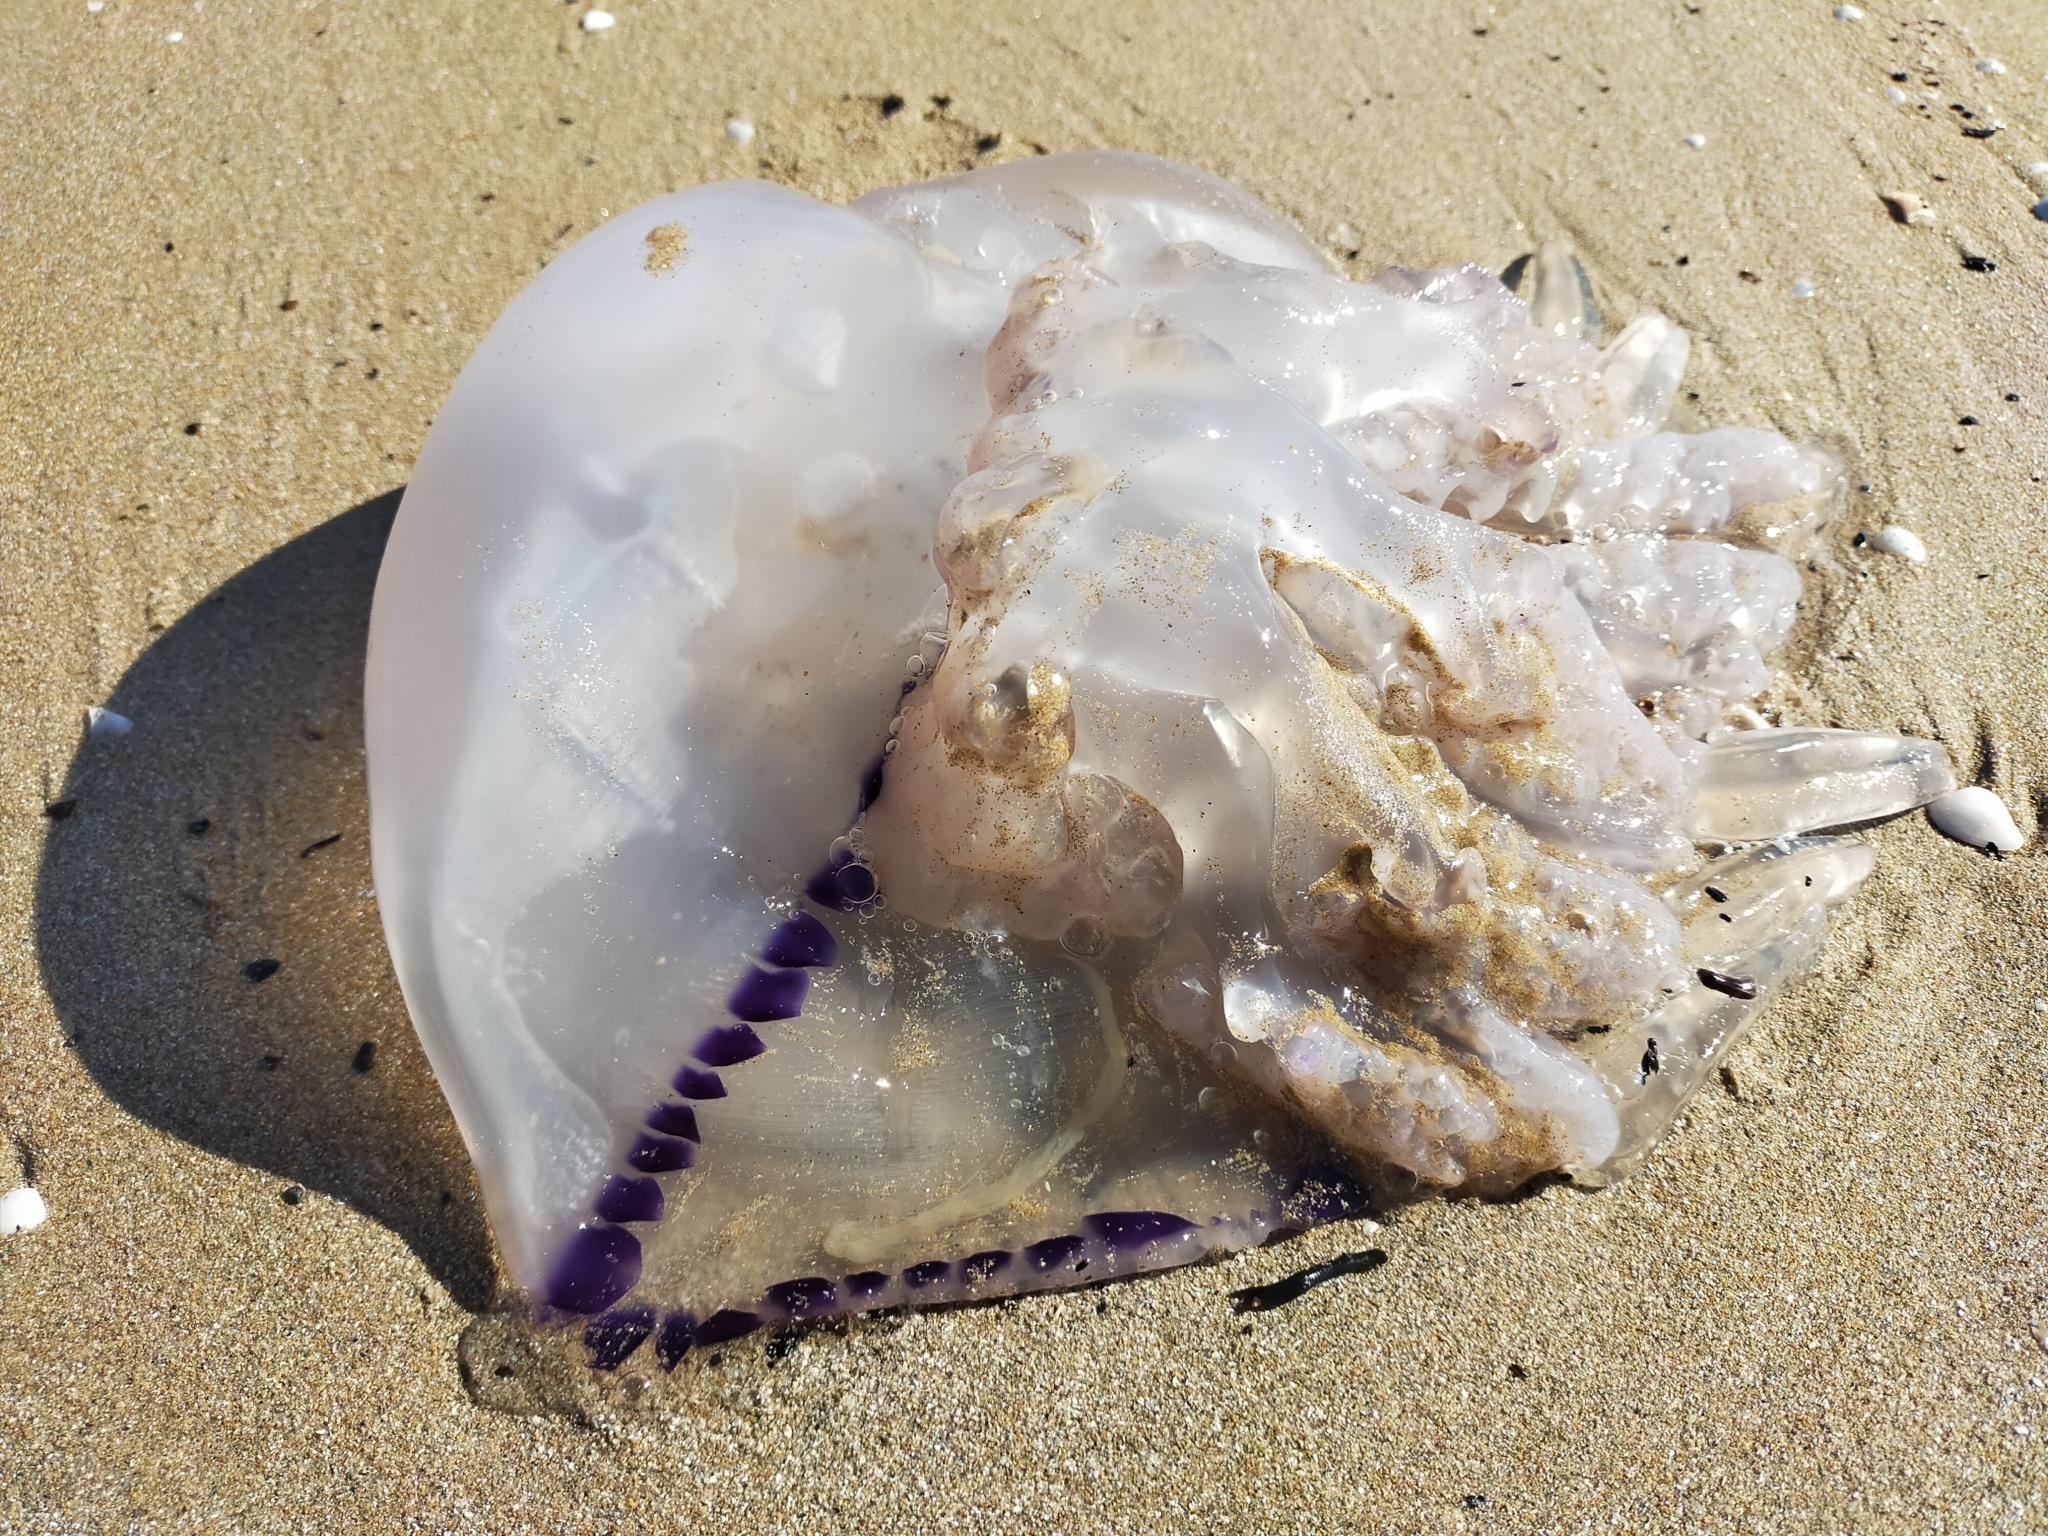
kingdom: Animalia
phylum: Cnidaria
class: Scyphozoa
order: Rhizostomeae
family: Rhizostomatidae
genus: Rhizostoma
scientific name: Rhizostoma pulmo
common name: Barrel jellyfish
